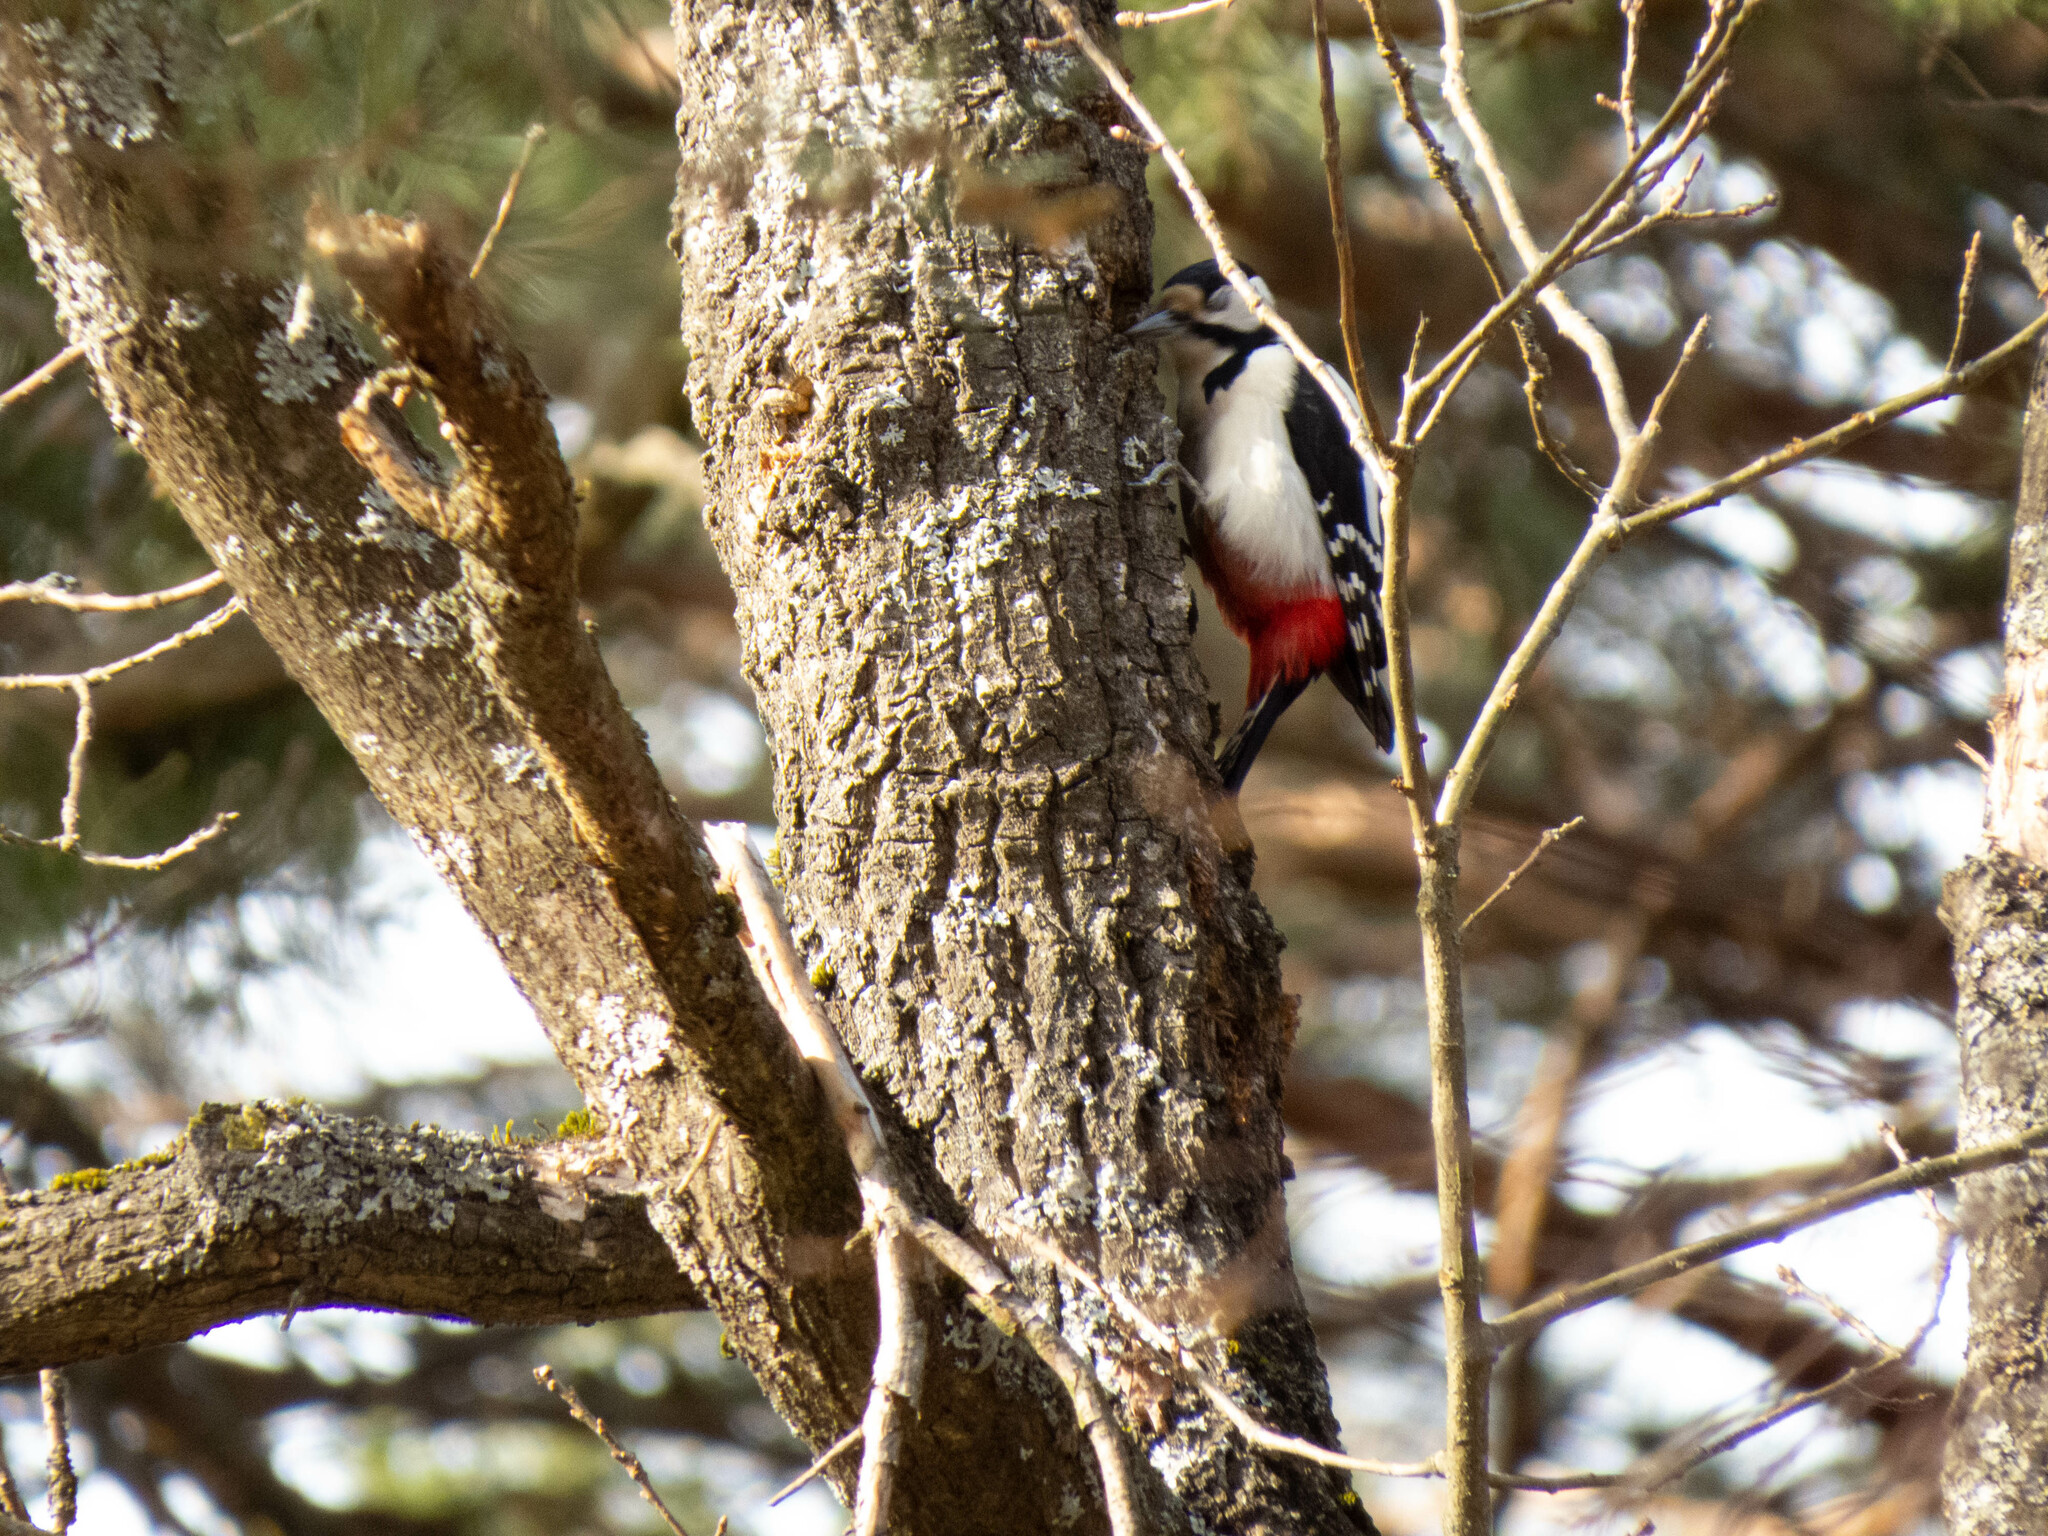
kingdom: Animalia
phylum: Chordata
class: Aves
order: Piciformes
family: Picidae
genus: Dendrocopos
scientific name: Dendrocopos major
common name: Great spotted woodpecker
